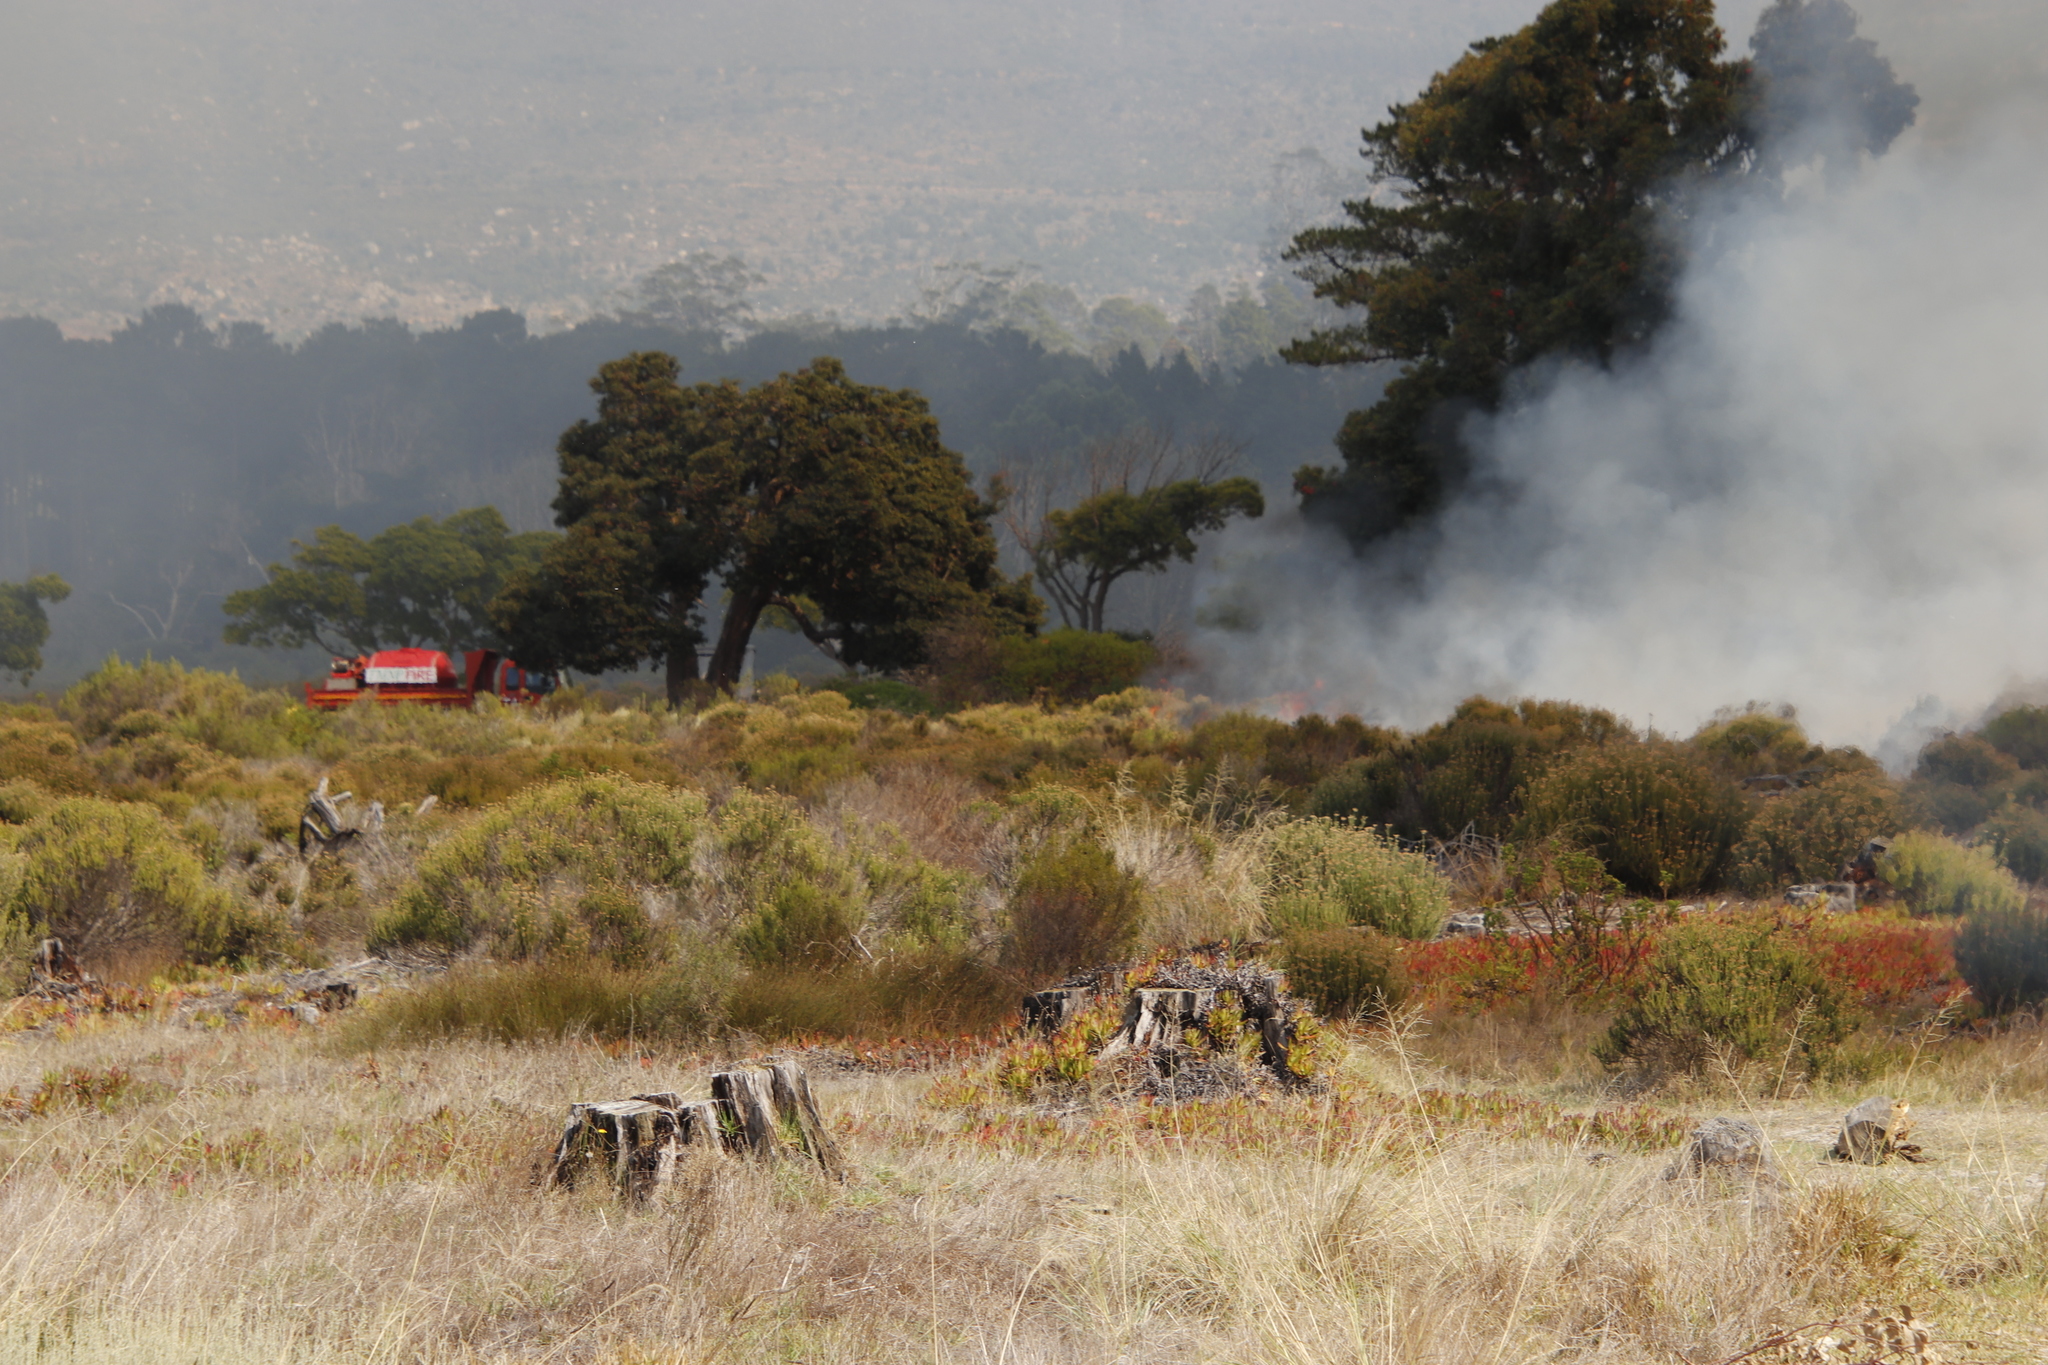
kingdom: Plantae
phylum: Tracheophyta
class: Magnoliopsida
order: Asterales
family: Asteraceae
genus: Seriphium
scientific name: Seriphium cinereum
